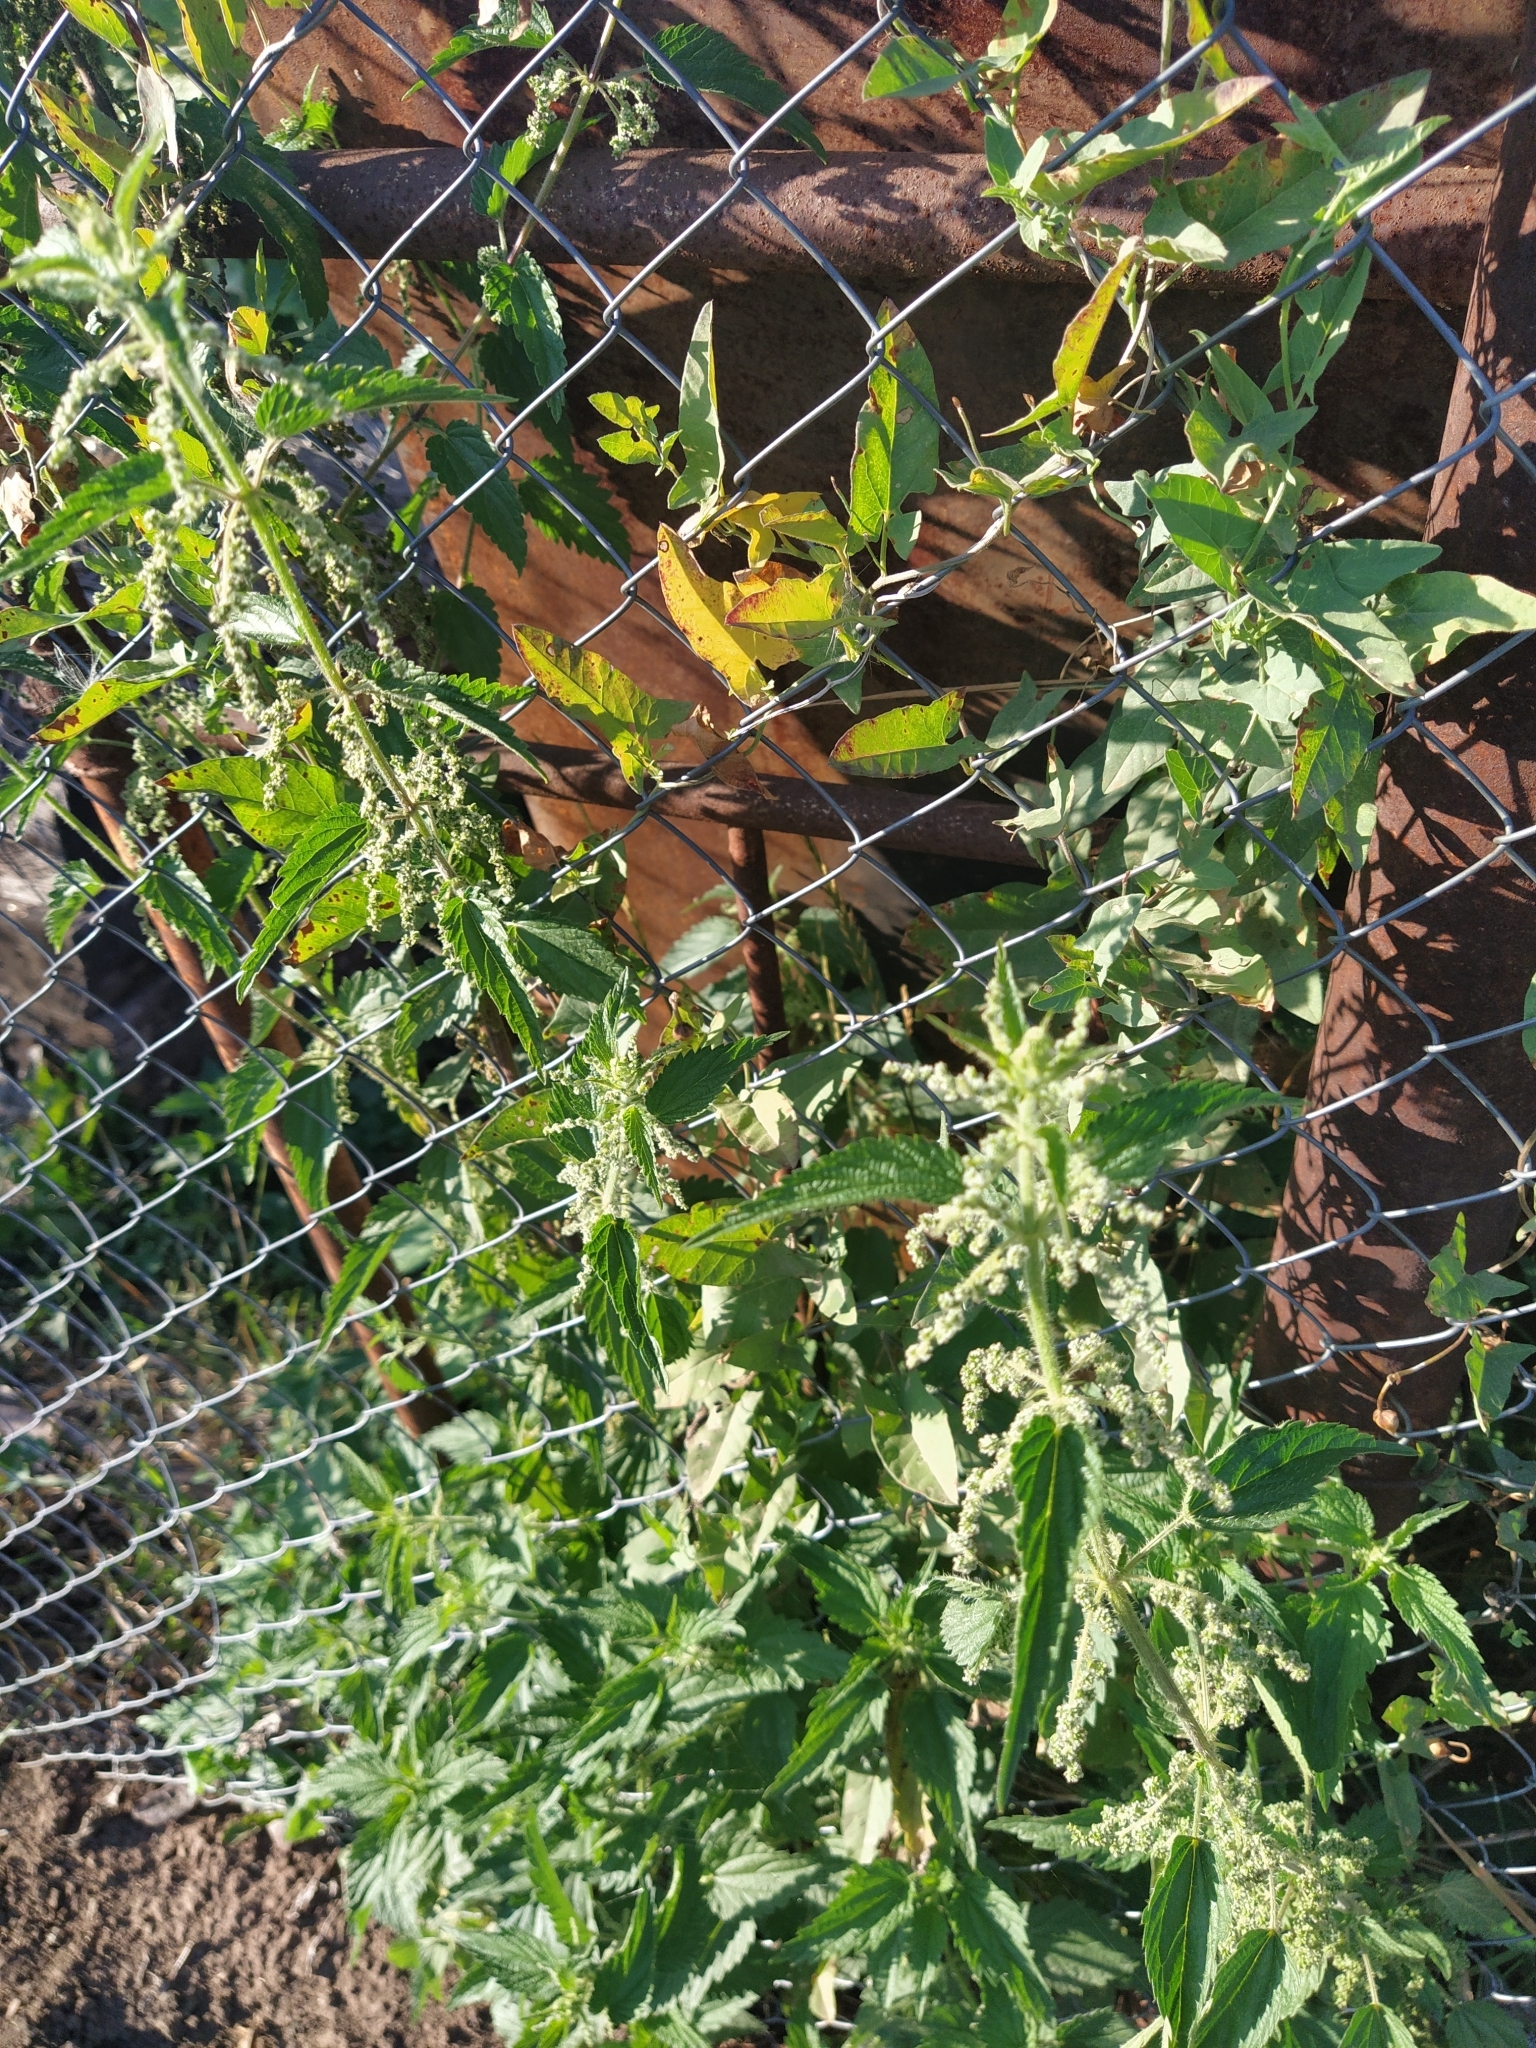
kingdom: Plantae
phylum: Tracheophyta
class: Magnoliopsida
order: Rosales
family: Urticaceae
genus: Urtica
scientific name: Urtica dioica
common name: Common nettle
